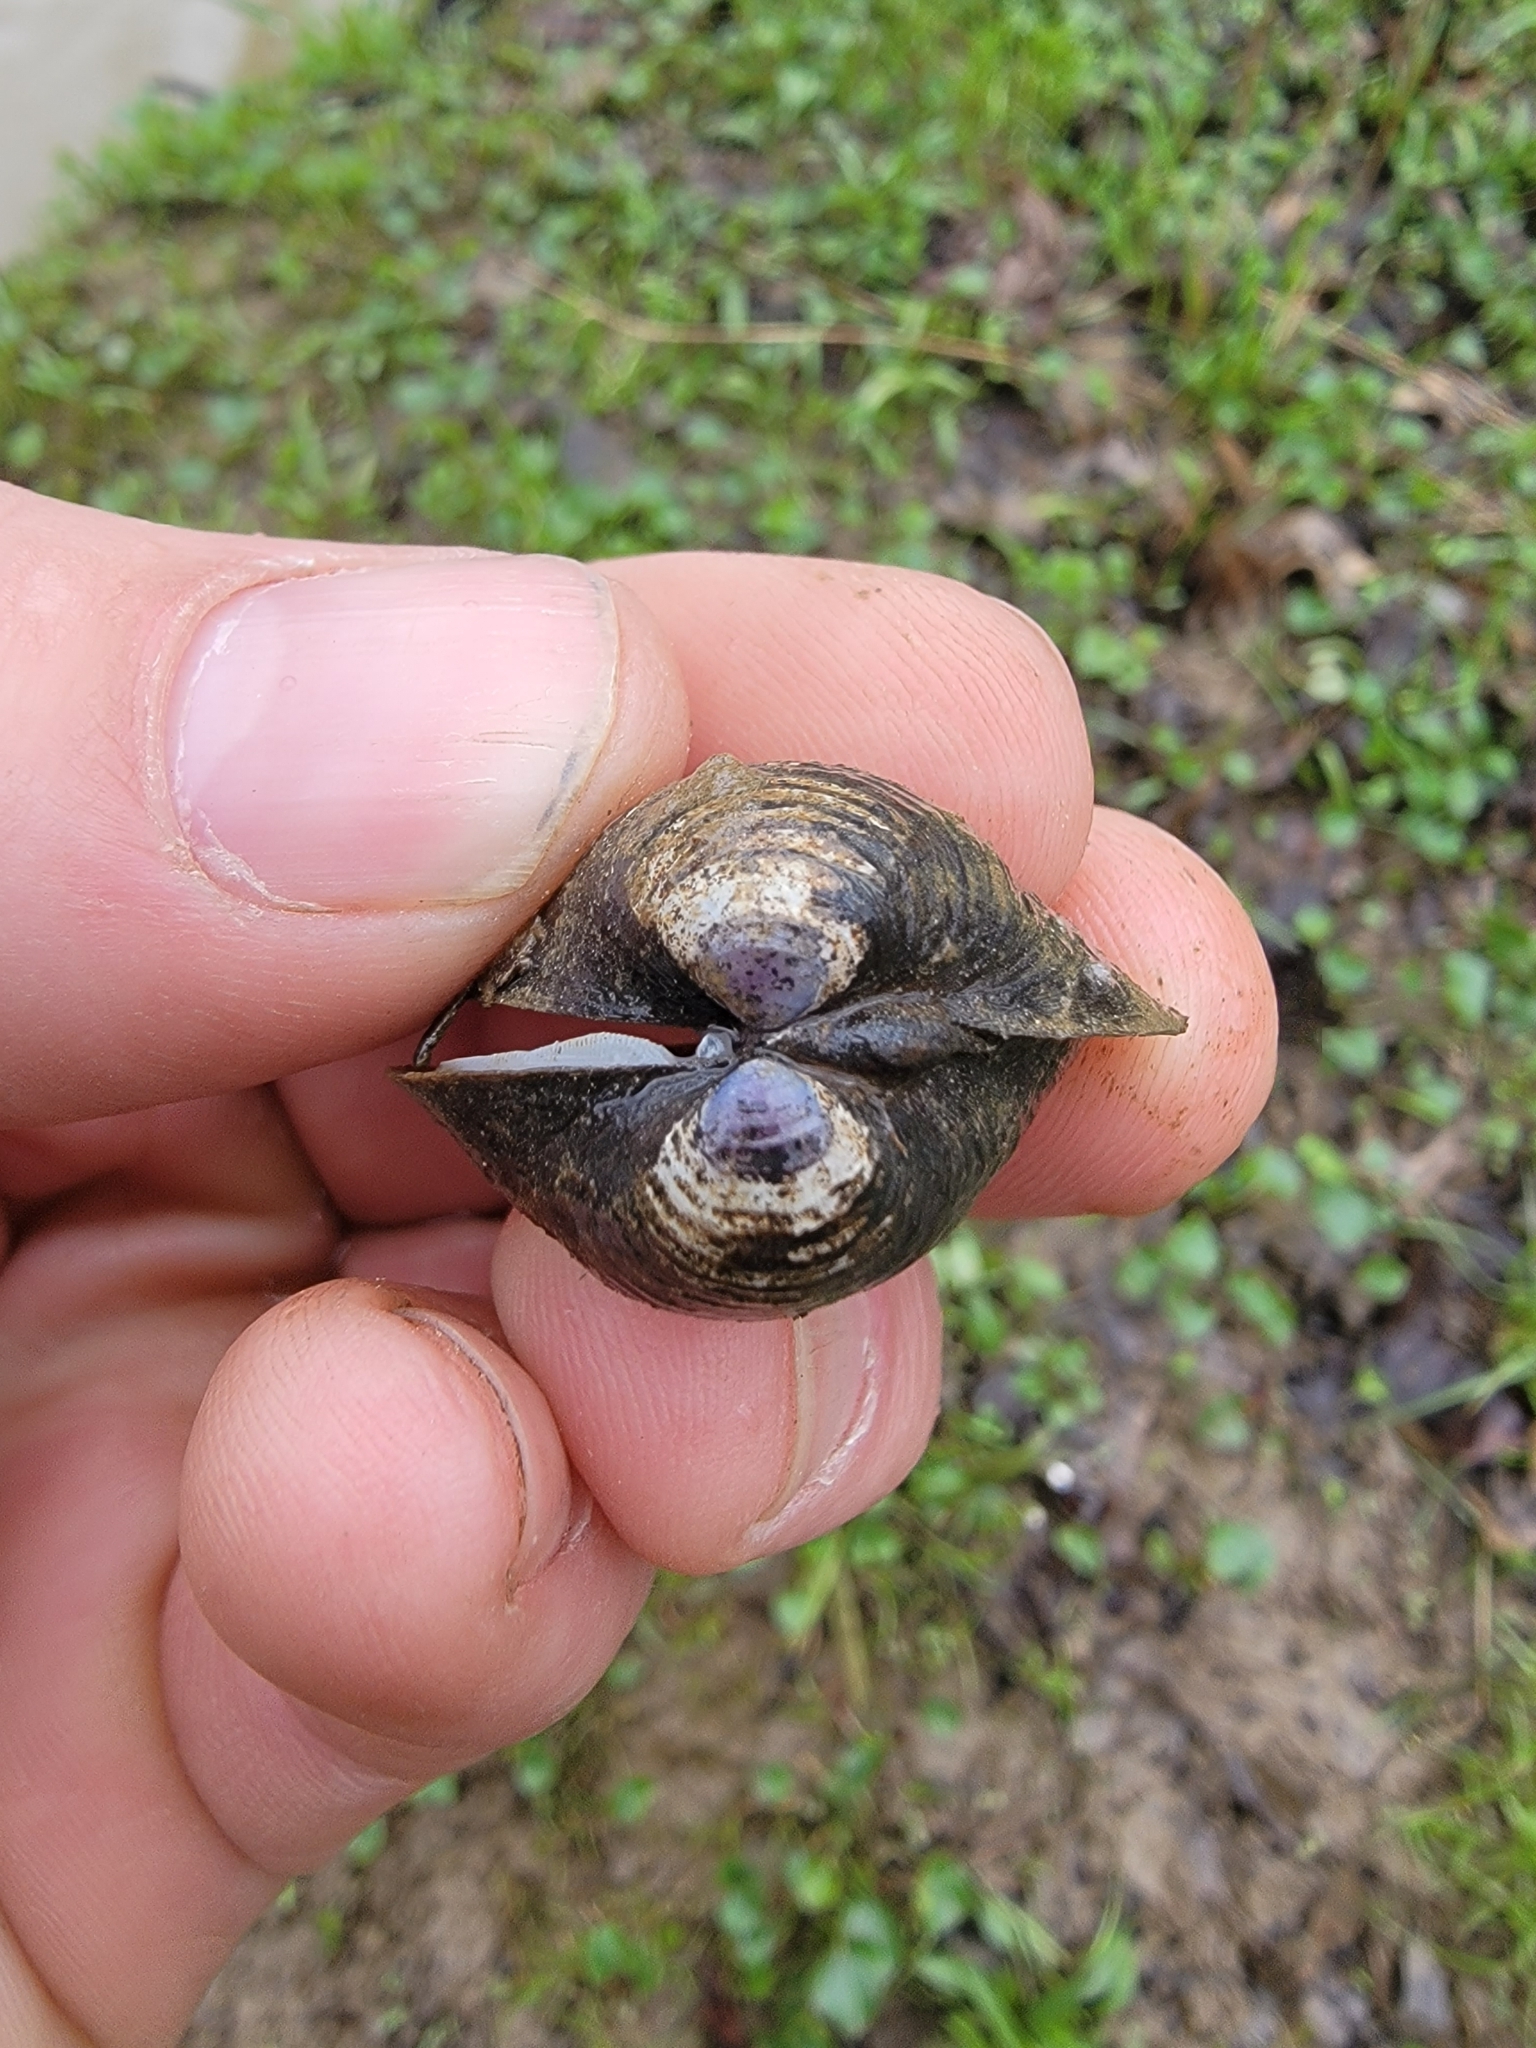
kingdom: Animalia
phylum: Mollusca
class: Bivalvia
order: Venerida
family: Cyrenidae
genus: Corbicula
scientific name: Corbicula fluminea
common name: Asian clam
